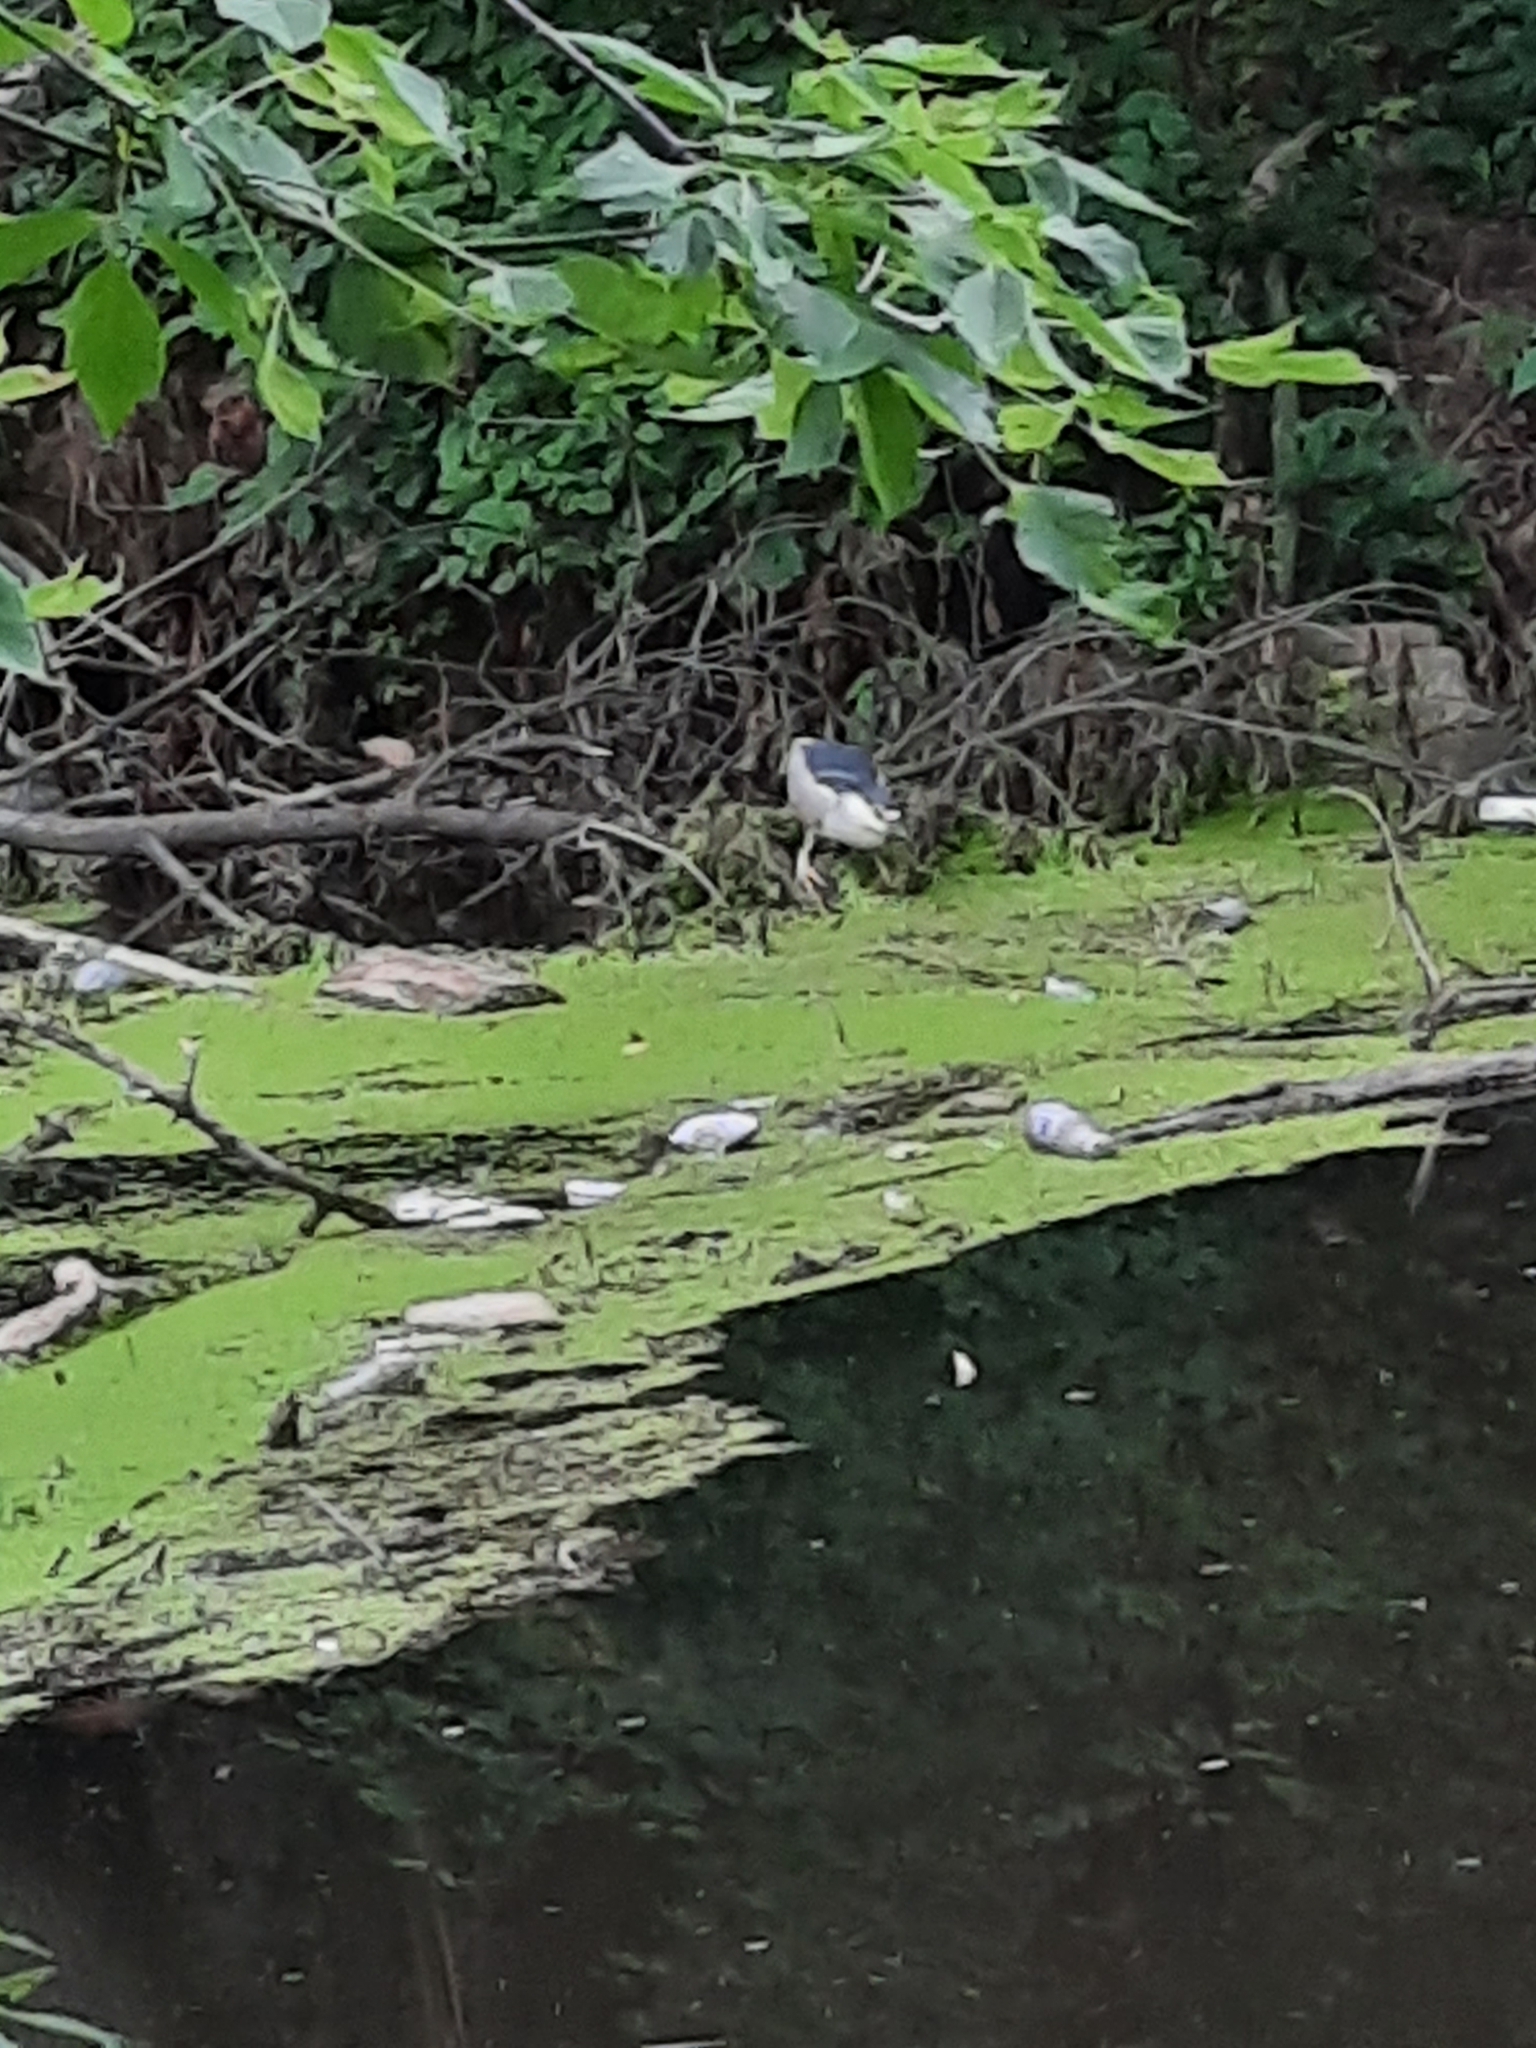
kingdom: Animalia
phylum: Chordata
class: Aves
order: Pelecaniformes
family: Ardeidae
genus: Nycticorax
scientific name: Nycticorax nycticorax
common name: Black-crowned night heron
